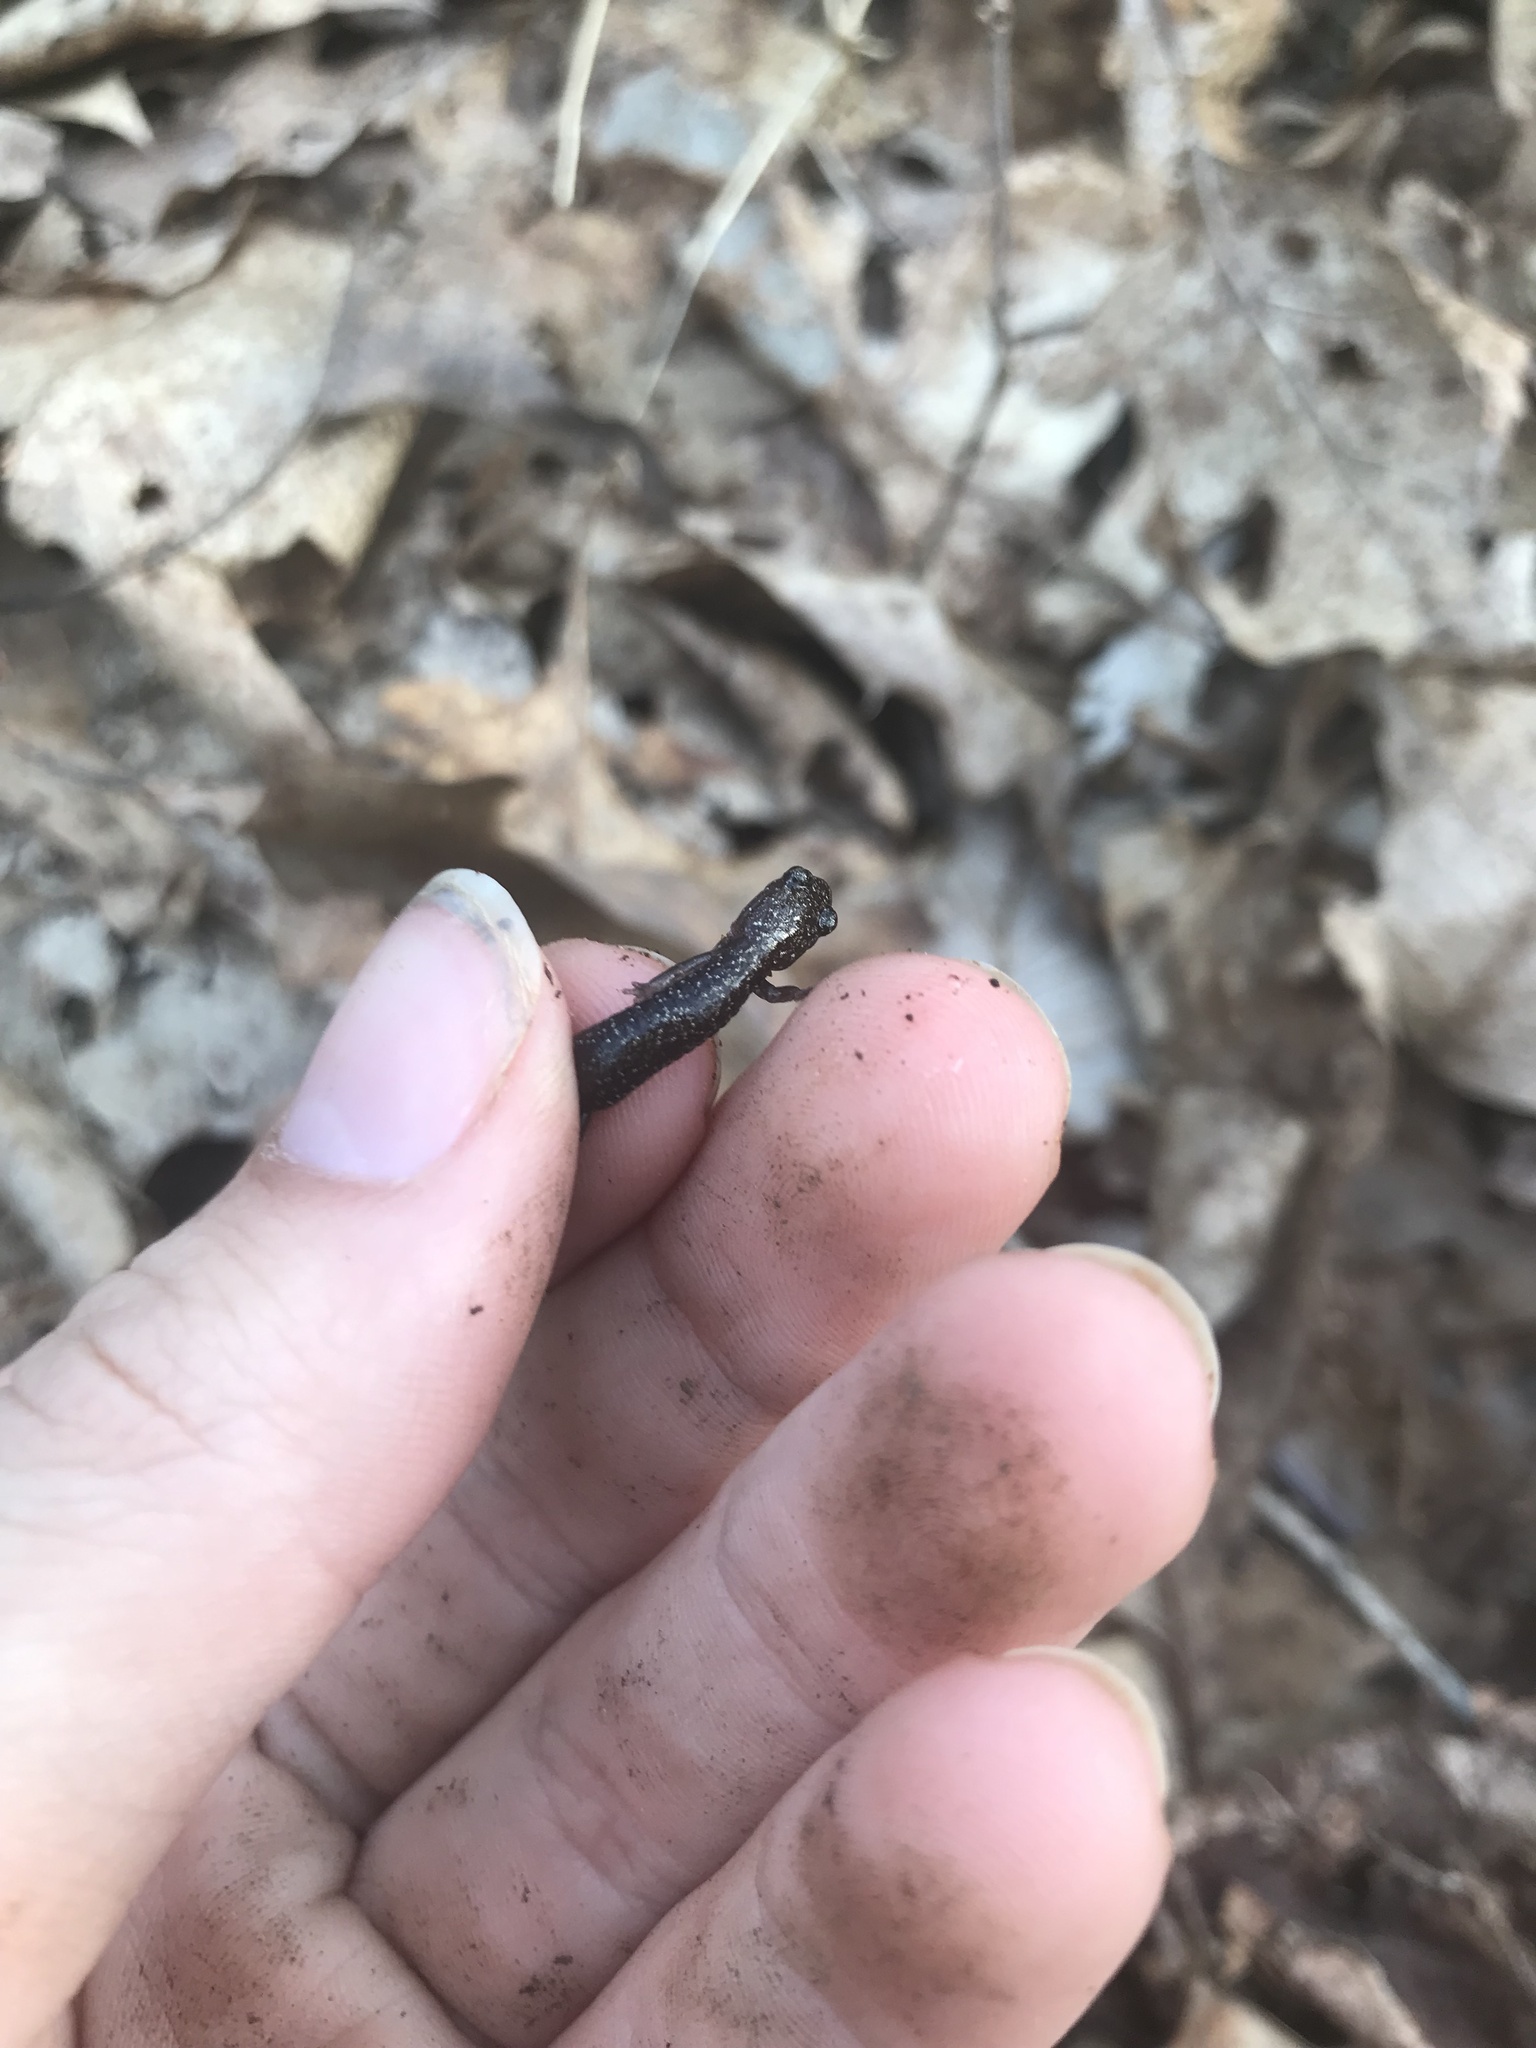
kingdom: Animalia
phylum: Chordata
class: Amphibia
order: Caudata
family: Plethodontidae
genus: Plethodon
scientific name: Plethodon hubrichti
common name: Peaks of otter salamander
